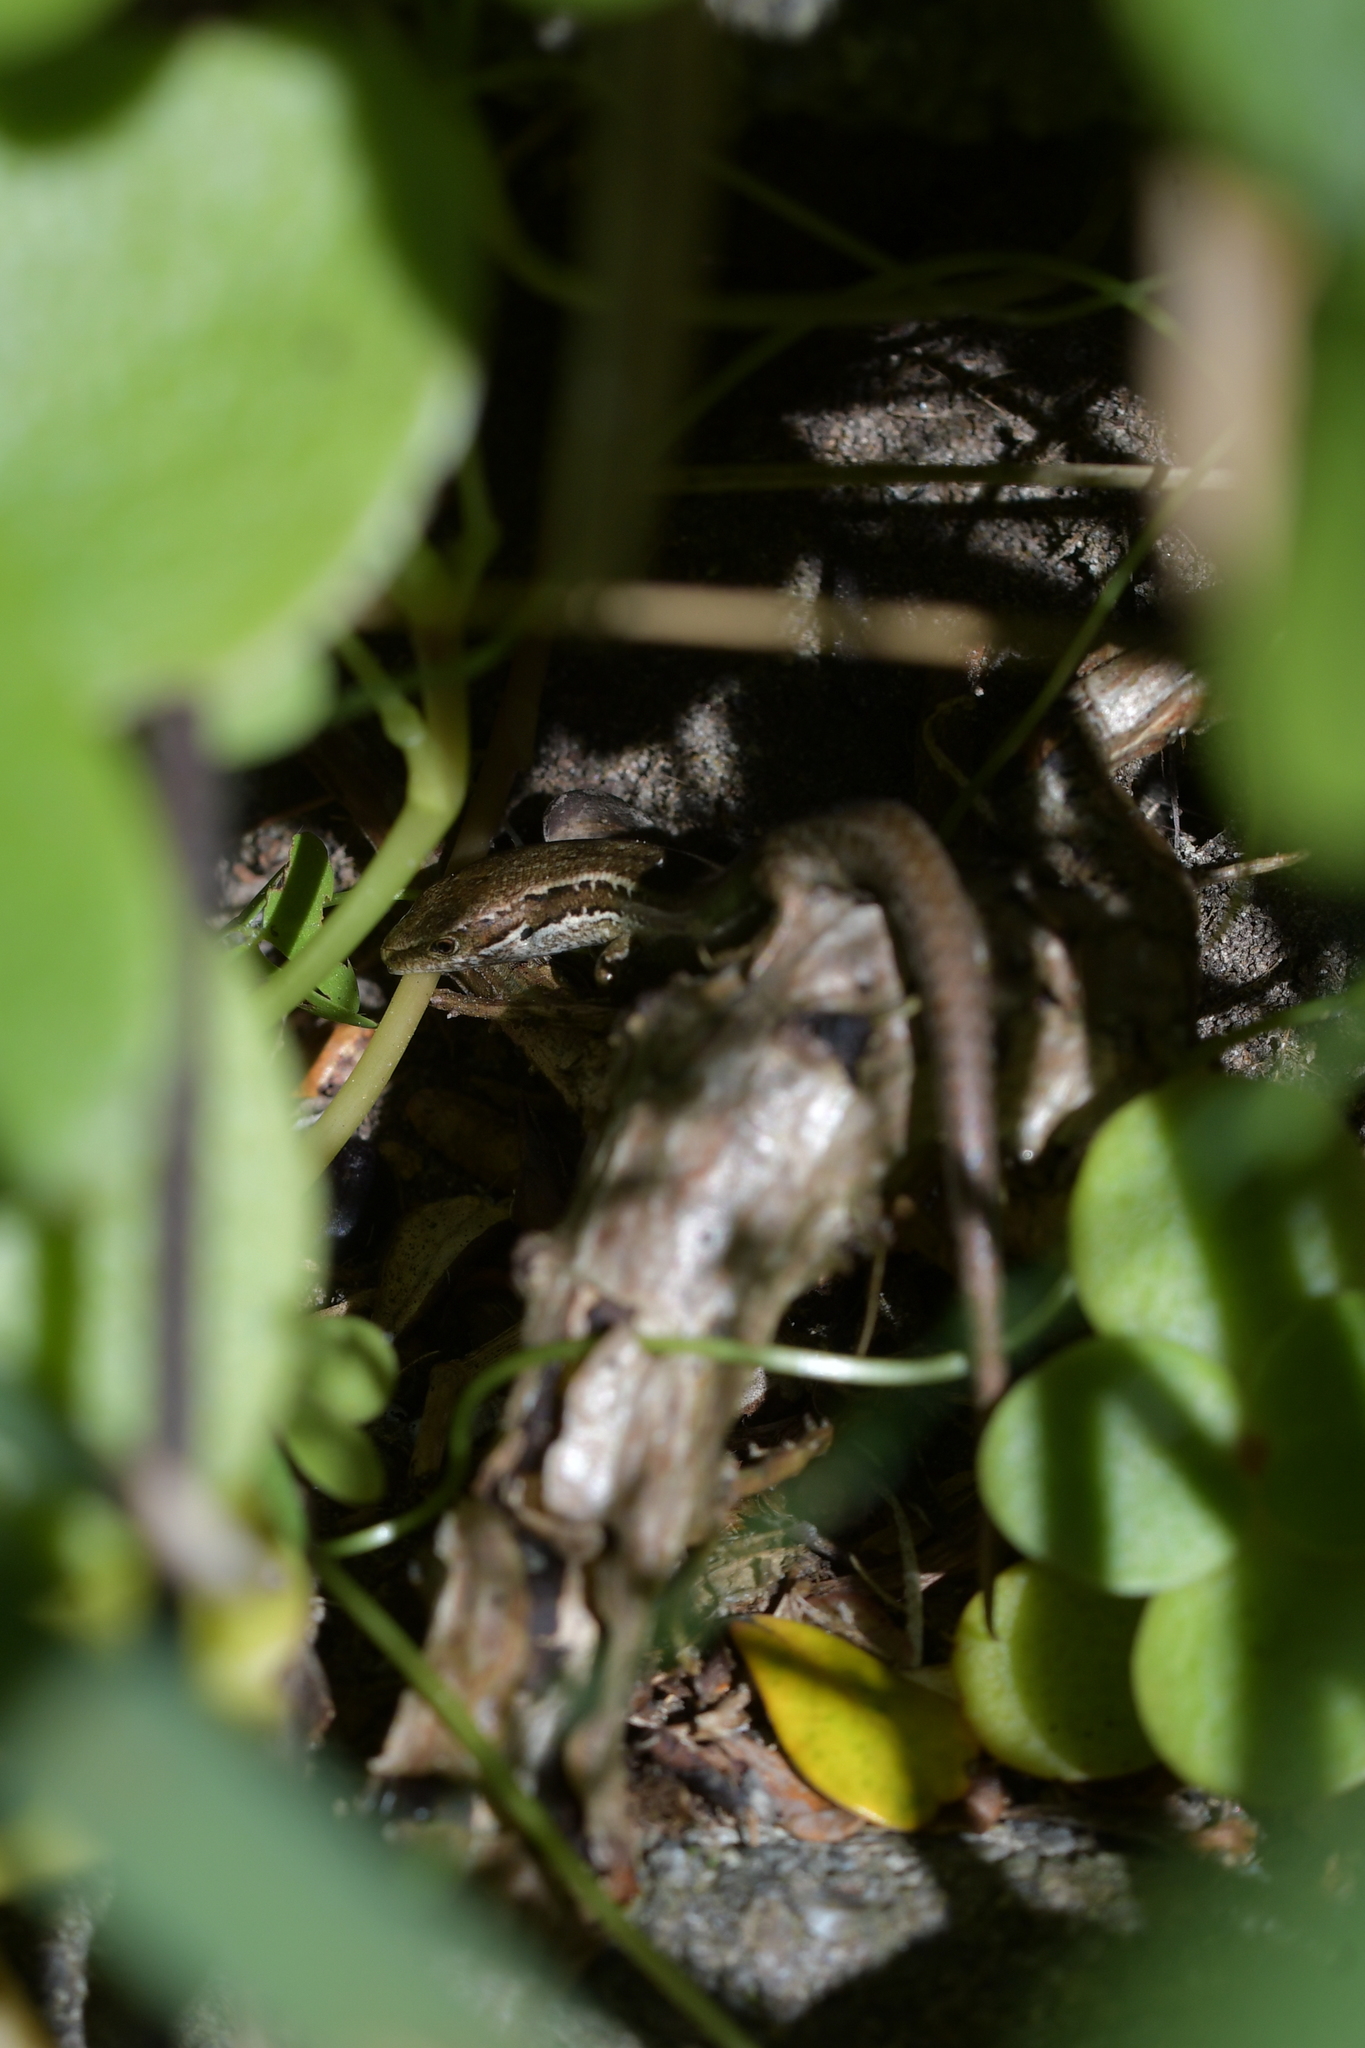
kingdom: Animalia
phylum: Chordata
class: Squamata
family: Scincidae
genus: Oligosoma
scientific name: Oligosoma polychroma
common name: Common new zealand skink
